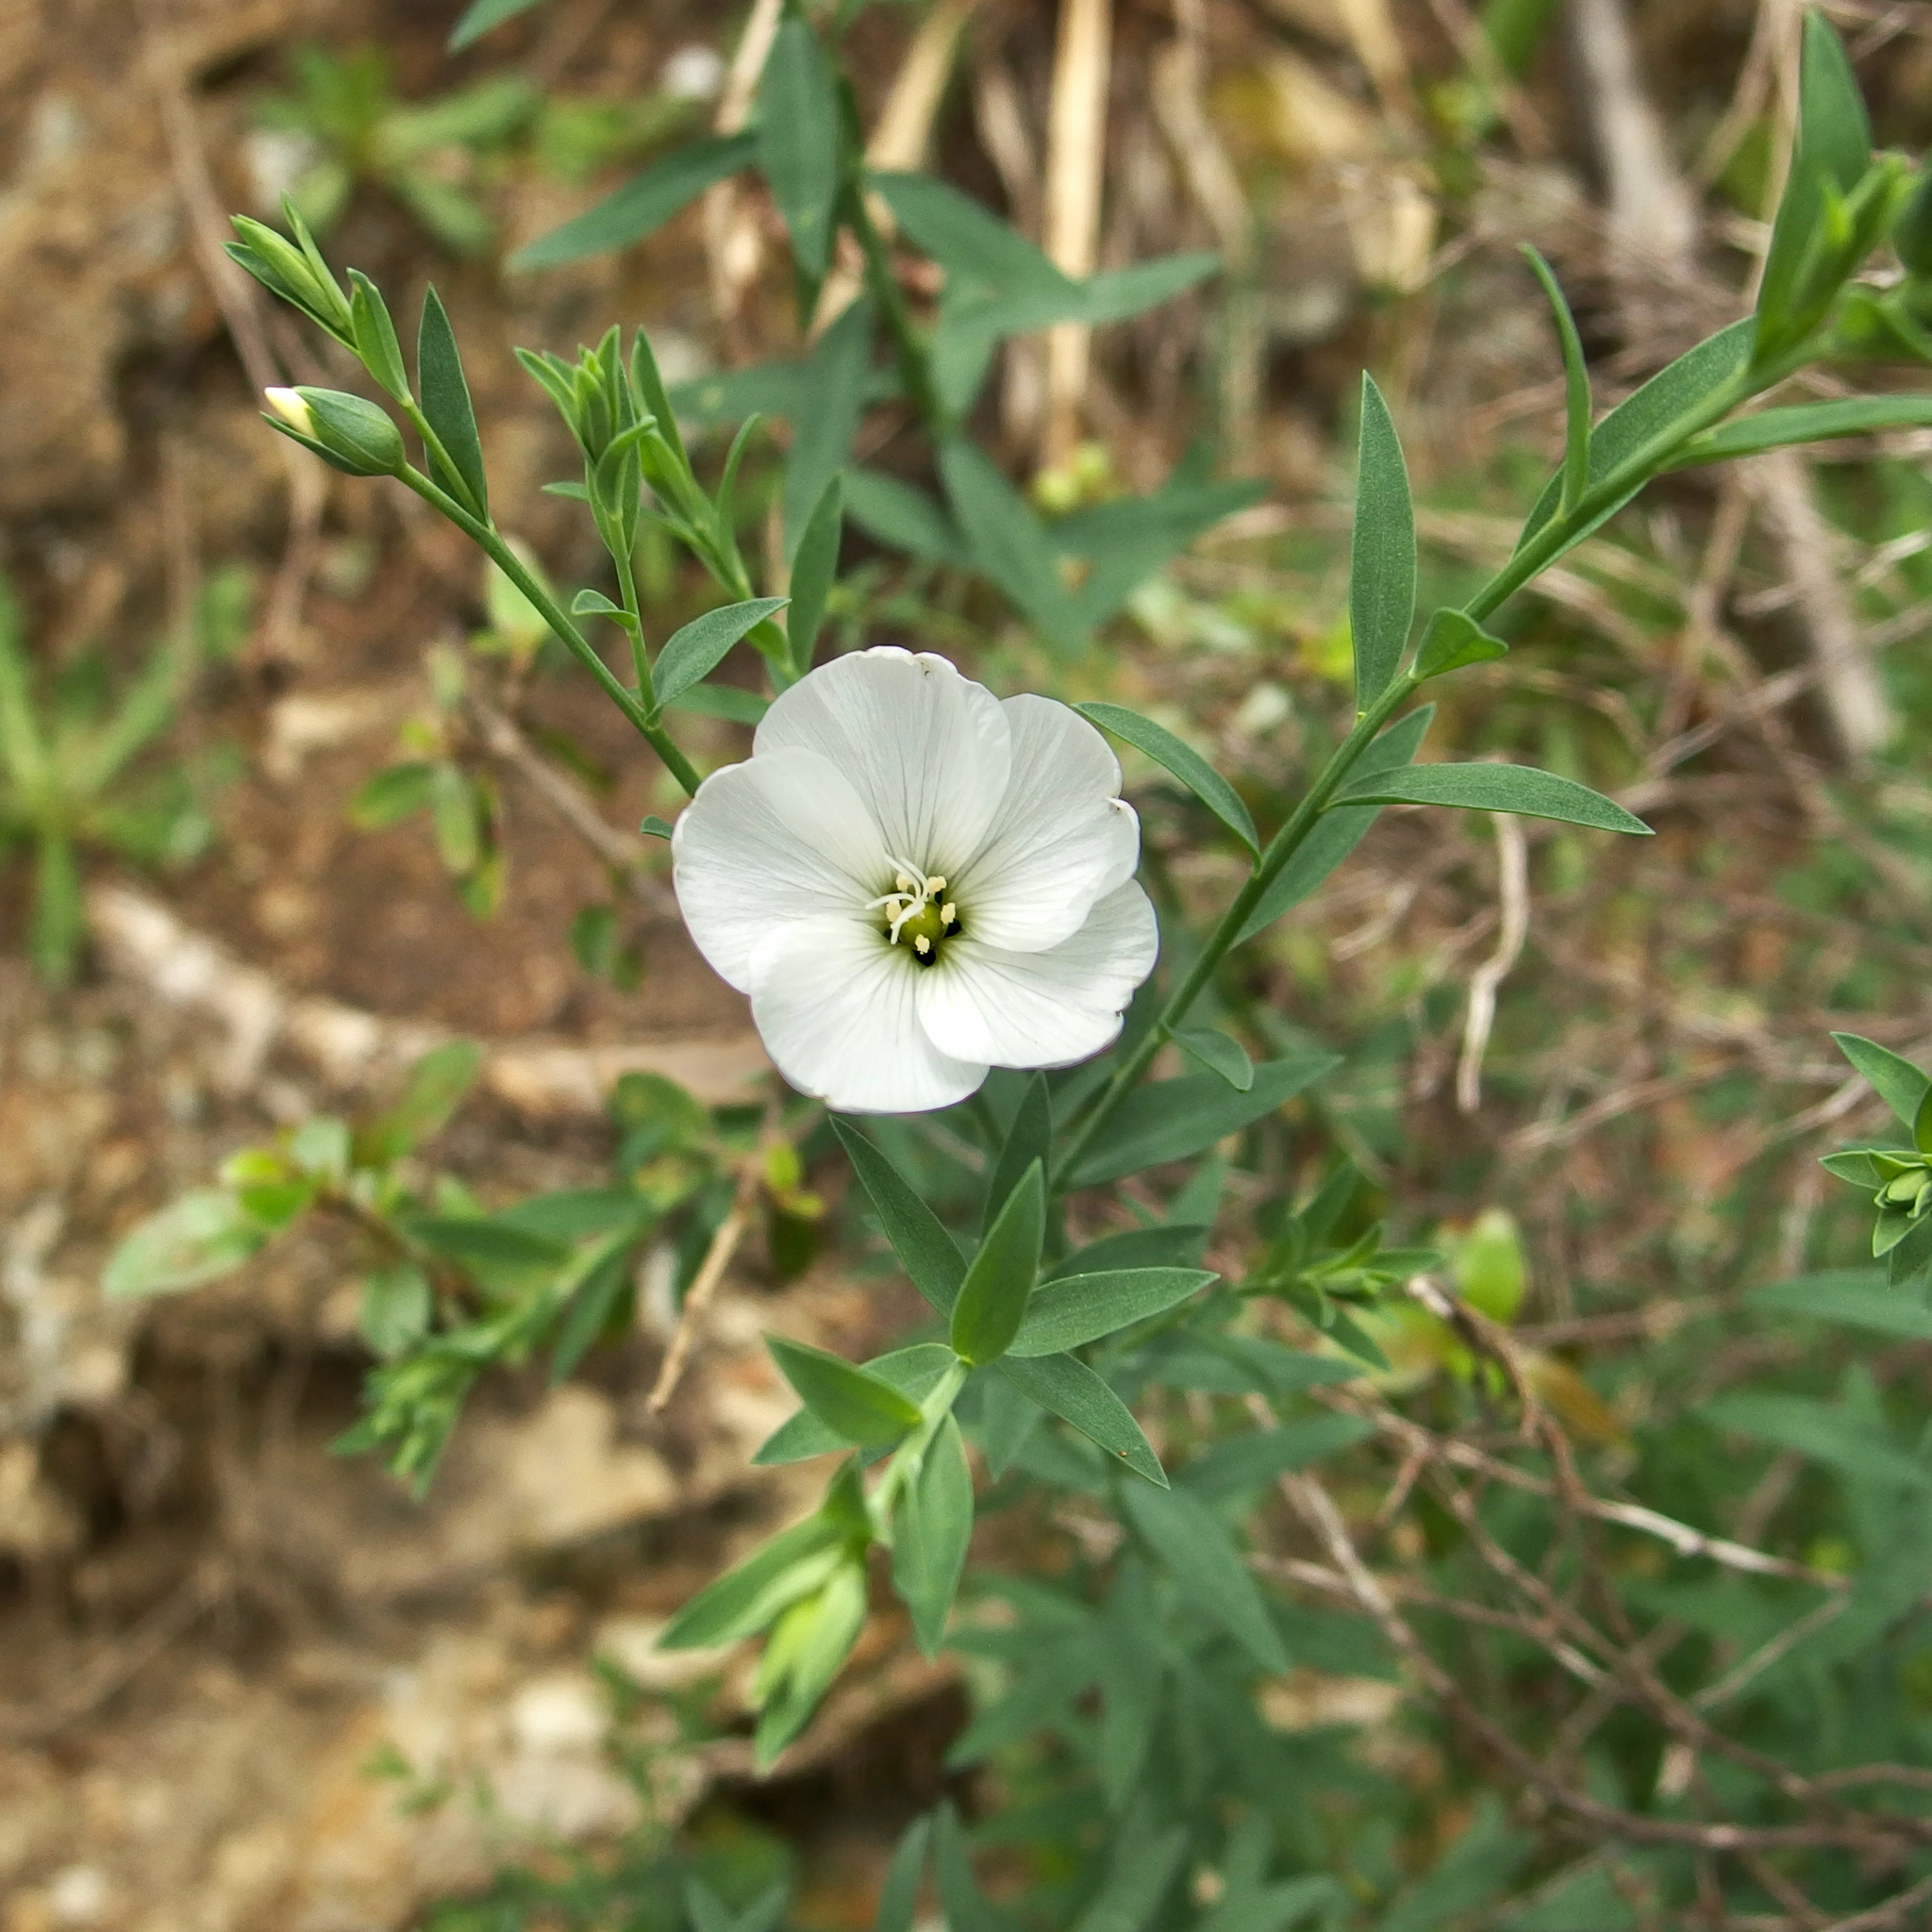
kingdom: Plantae
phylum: Tracheophyta
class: Magnoliopsida
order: Malpighiales
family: Linaceae
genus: Linum
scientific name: Linum monogynum
